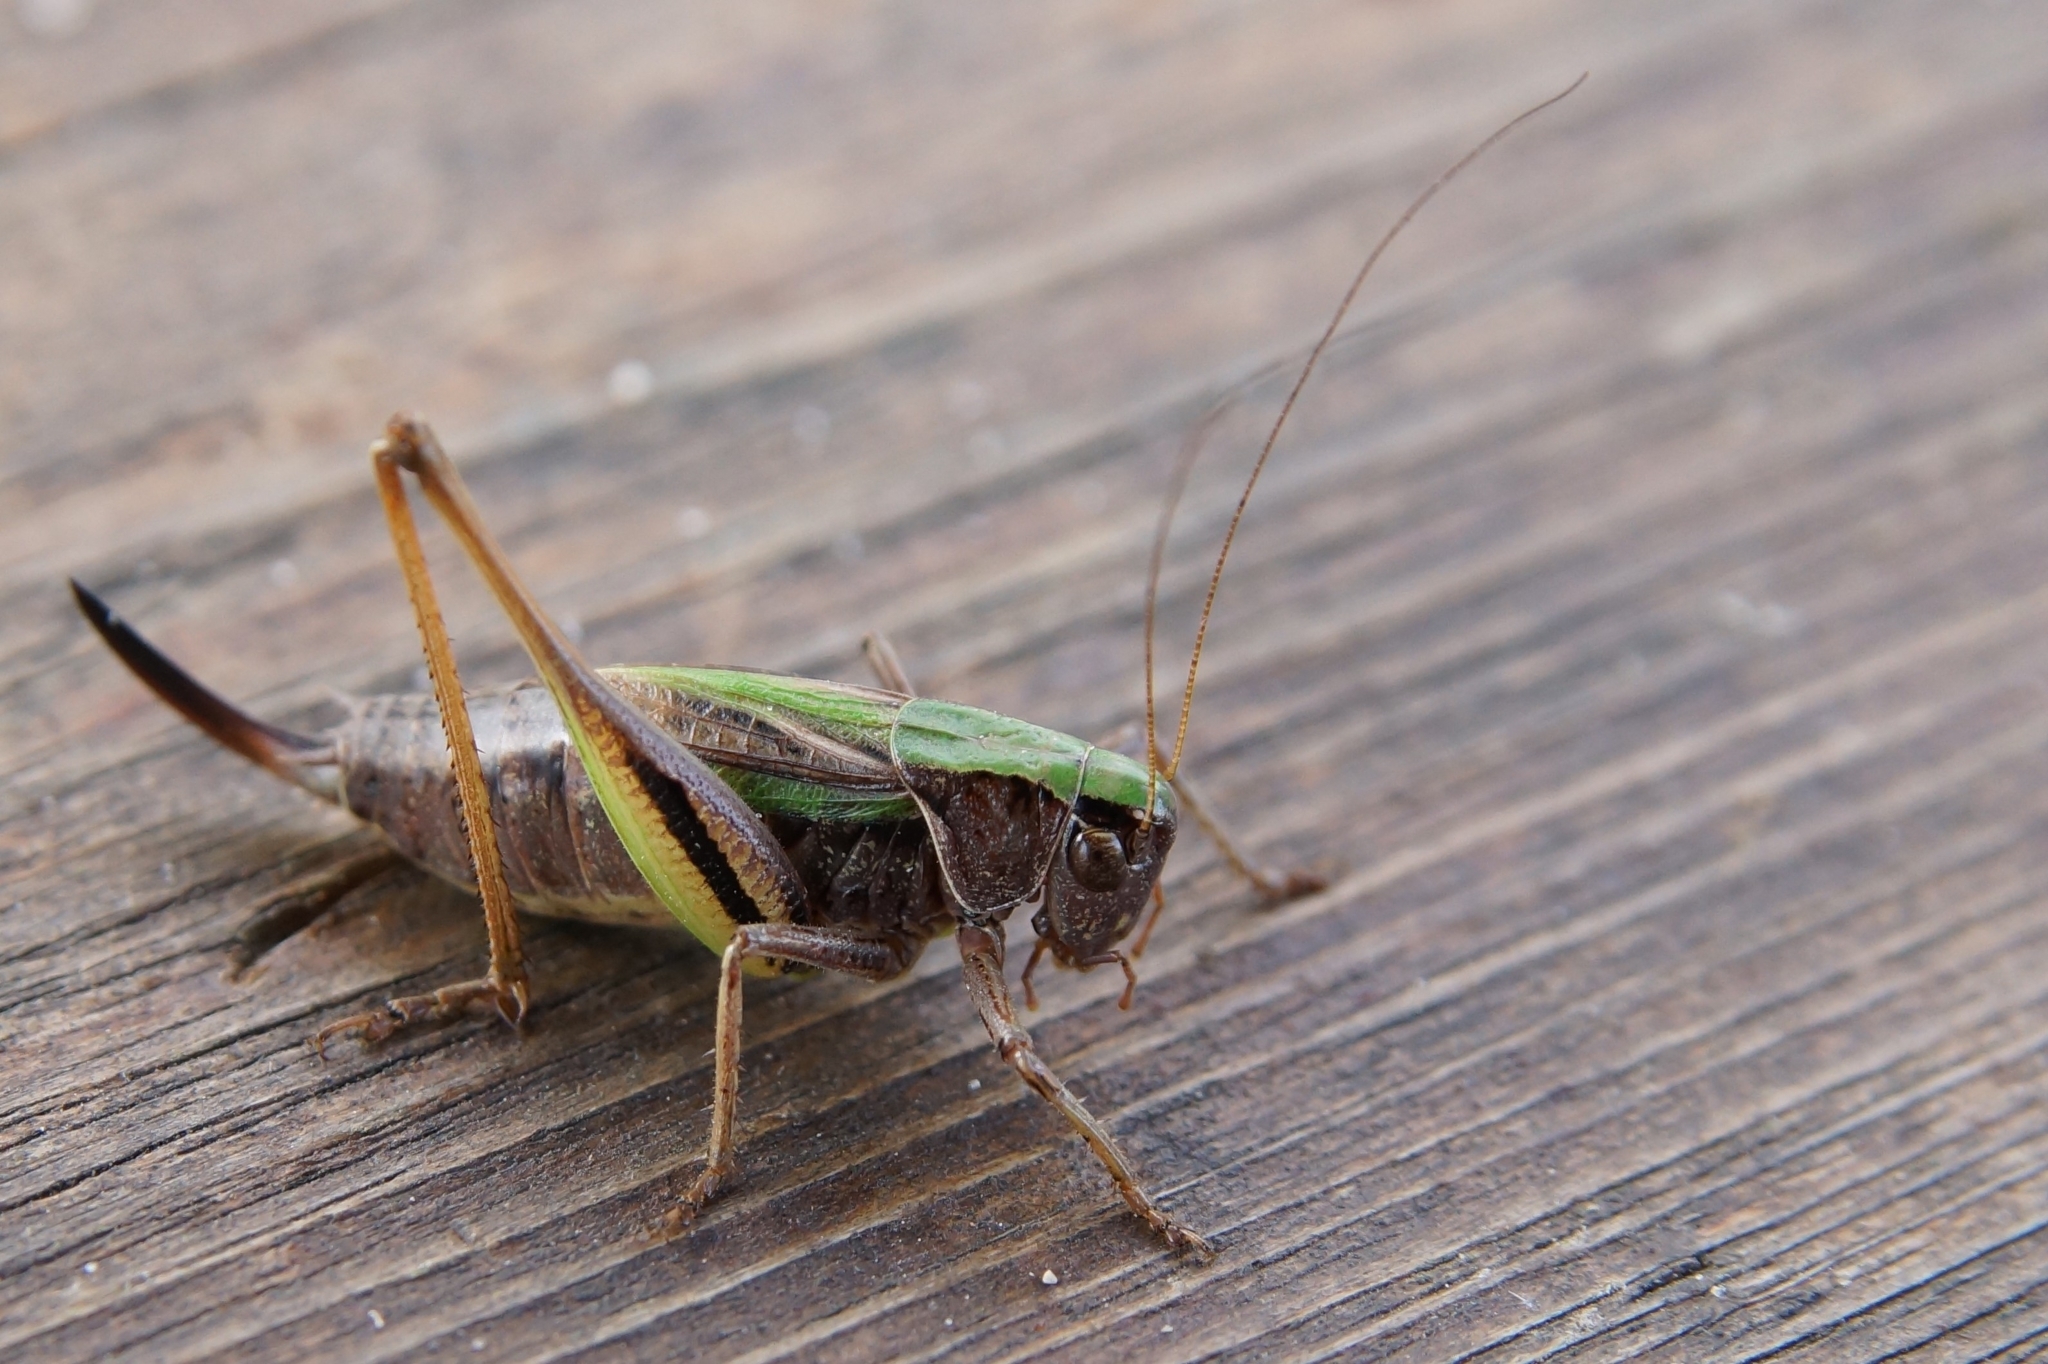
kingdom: Animalia
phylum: Arthropoda
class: Insecta
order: Orthoptera
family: Tettigoniidae
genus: Metrioptera
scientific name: Metrioptera brachyptera
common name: Bog bush-cricket
